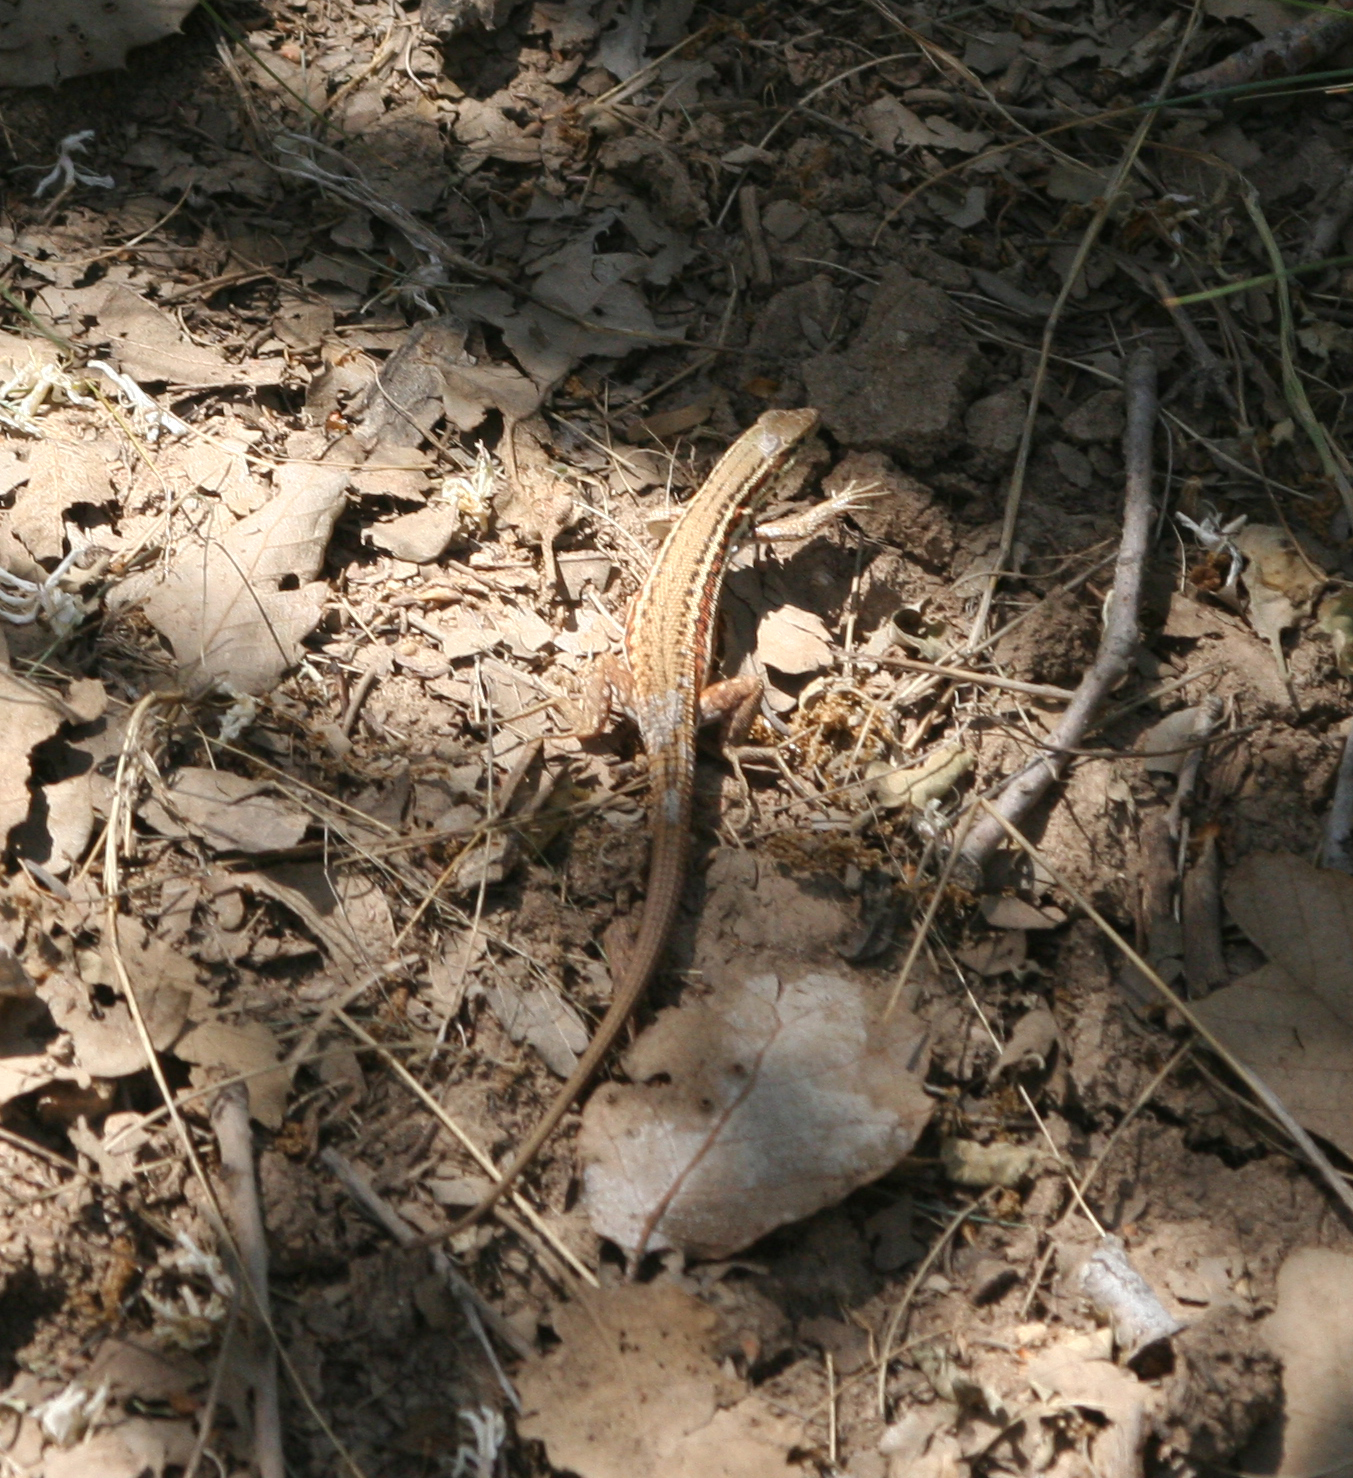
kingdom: Animalia
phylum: Chordata
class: Squamata
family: Lacertidae
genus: Ophisops
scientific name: Ophisops elegans
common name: Snake-eyed lizard
